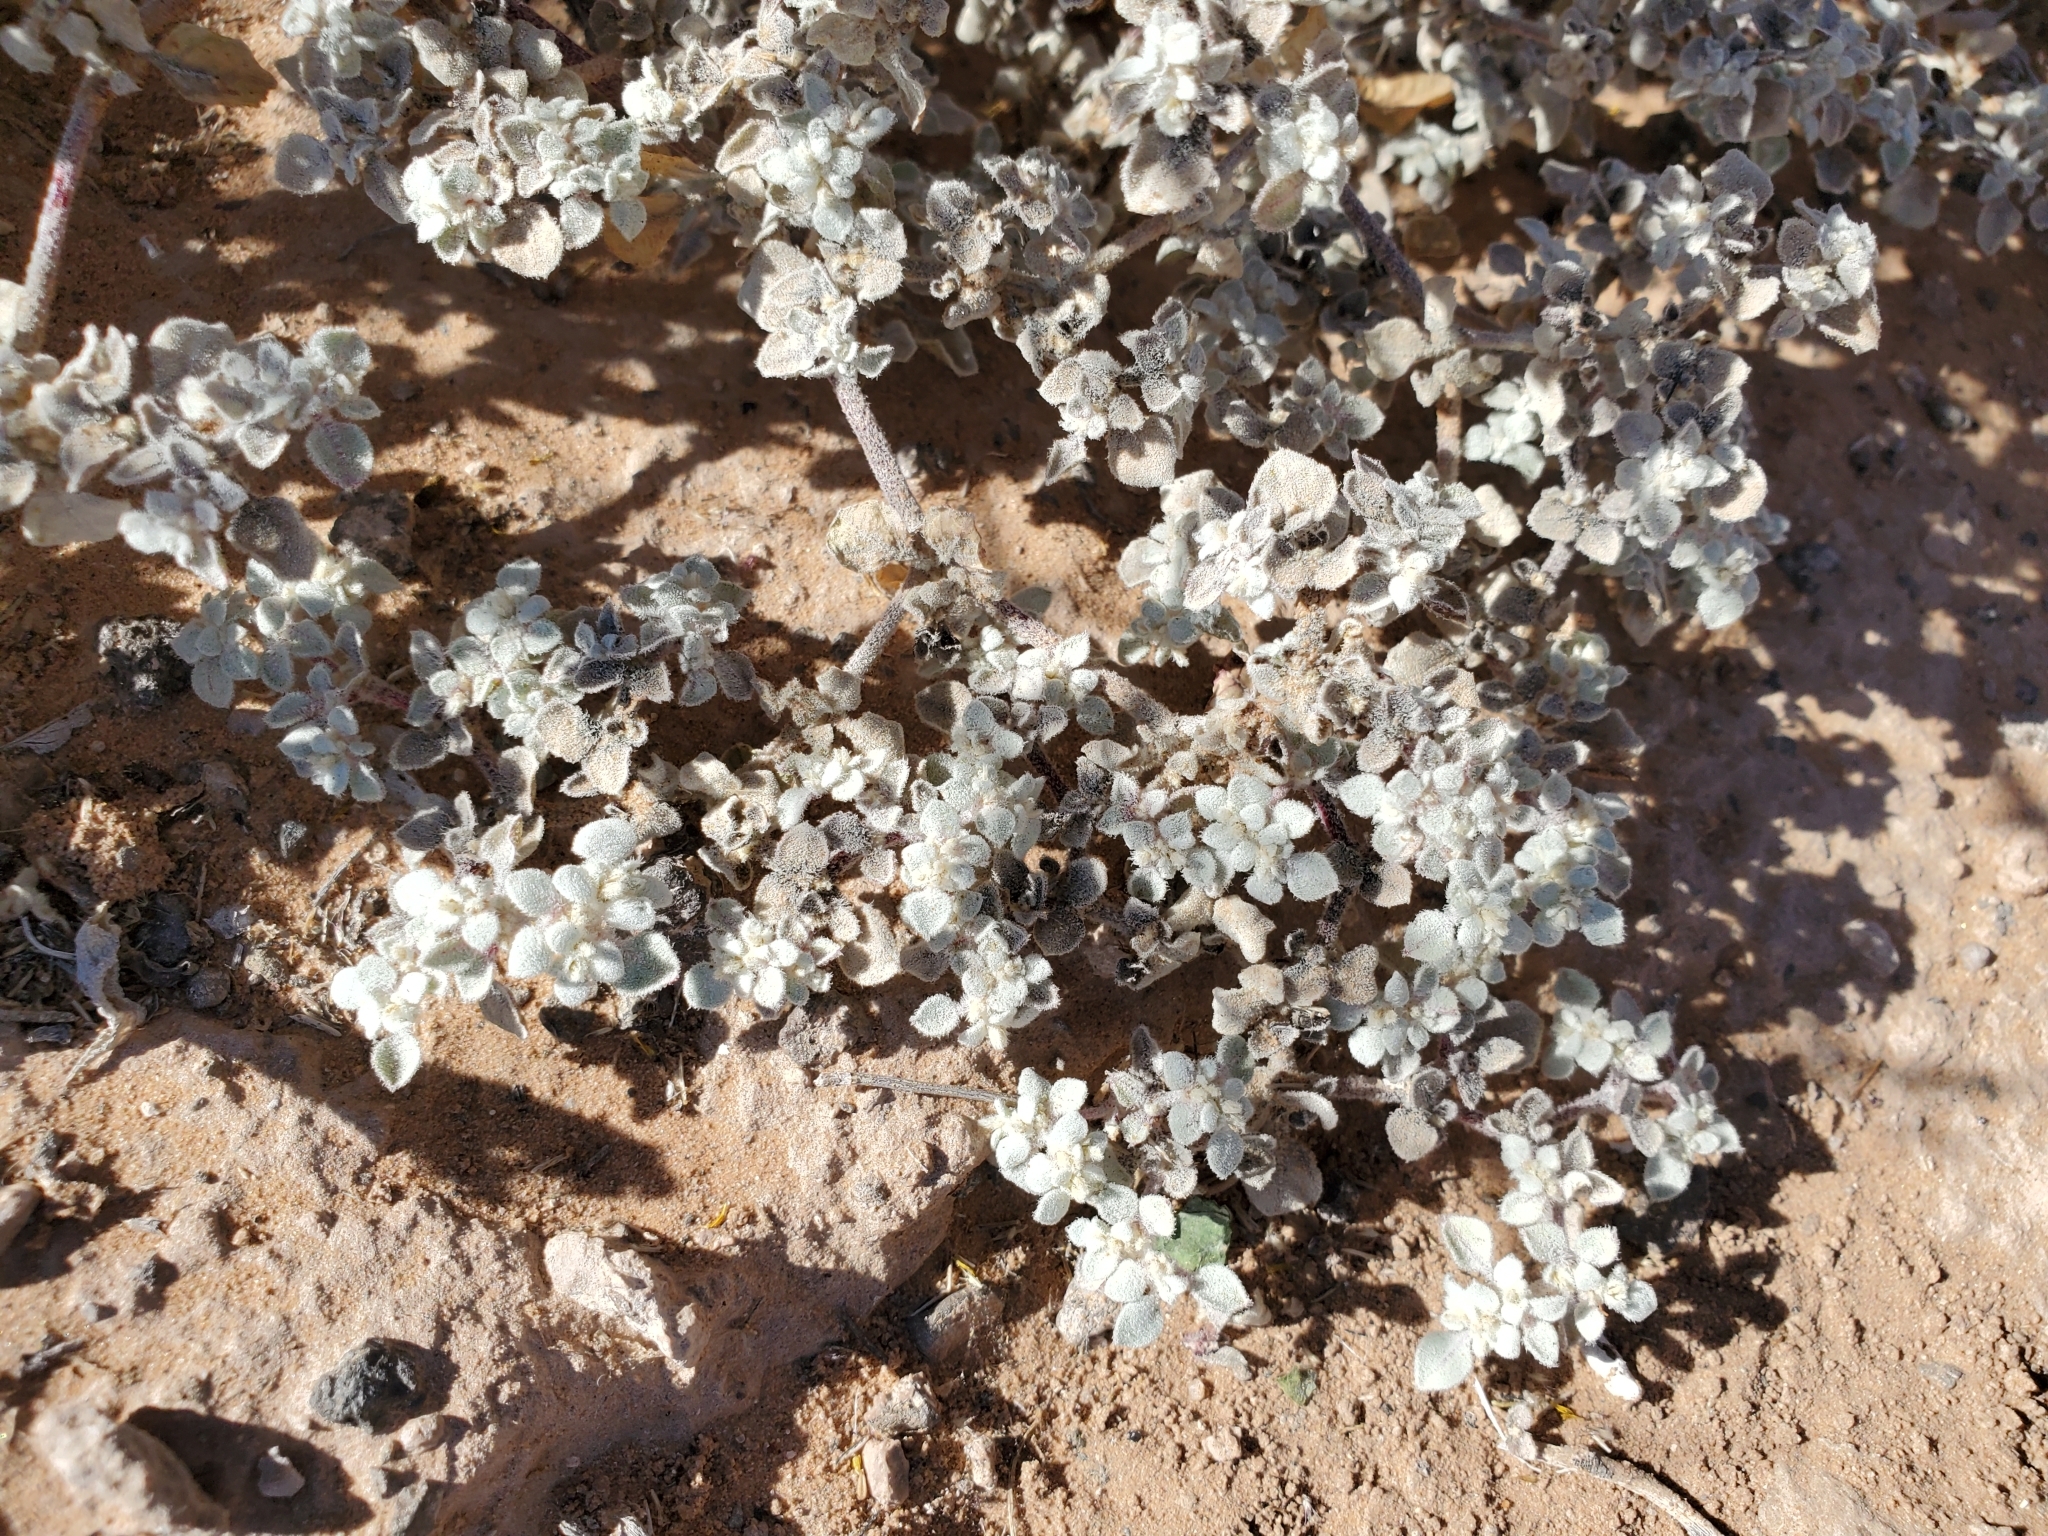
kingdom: Plantae
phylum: Tracheophyta
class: Magnoliopsida
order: Caryophyllales
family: Amaranthaceae
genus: Tidestromia
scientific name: Tidestromia lanuginosa
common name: Woolly tidestromia
